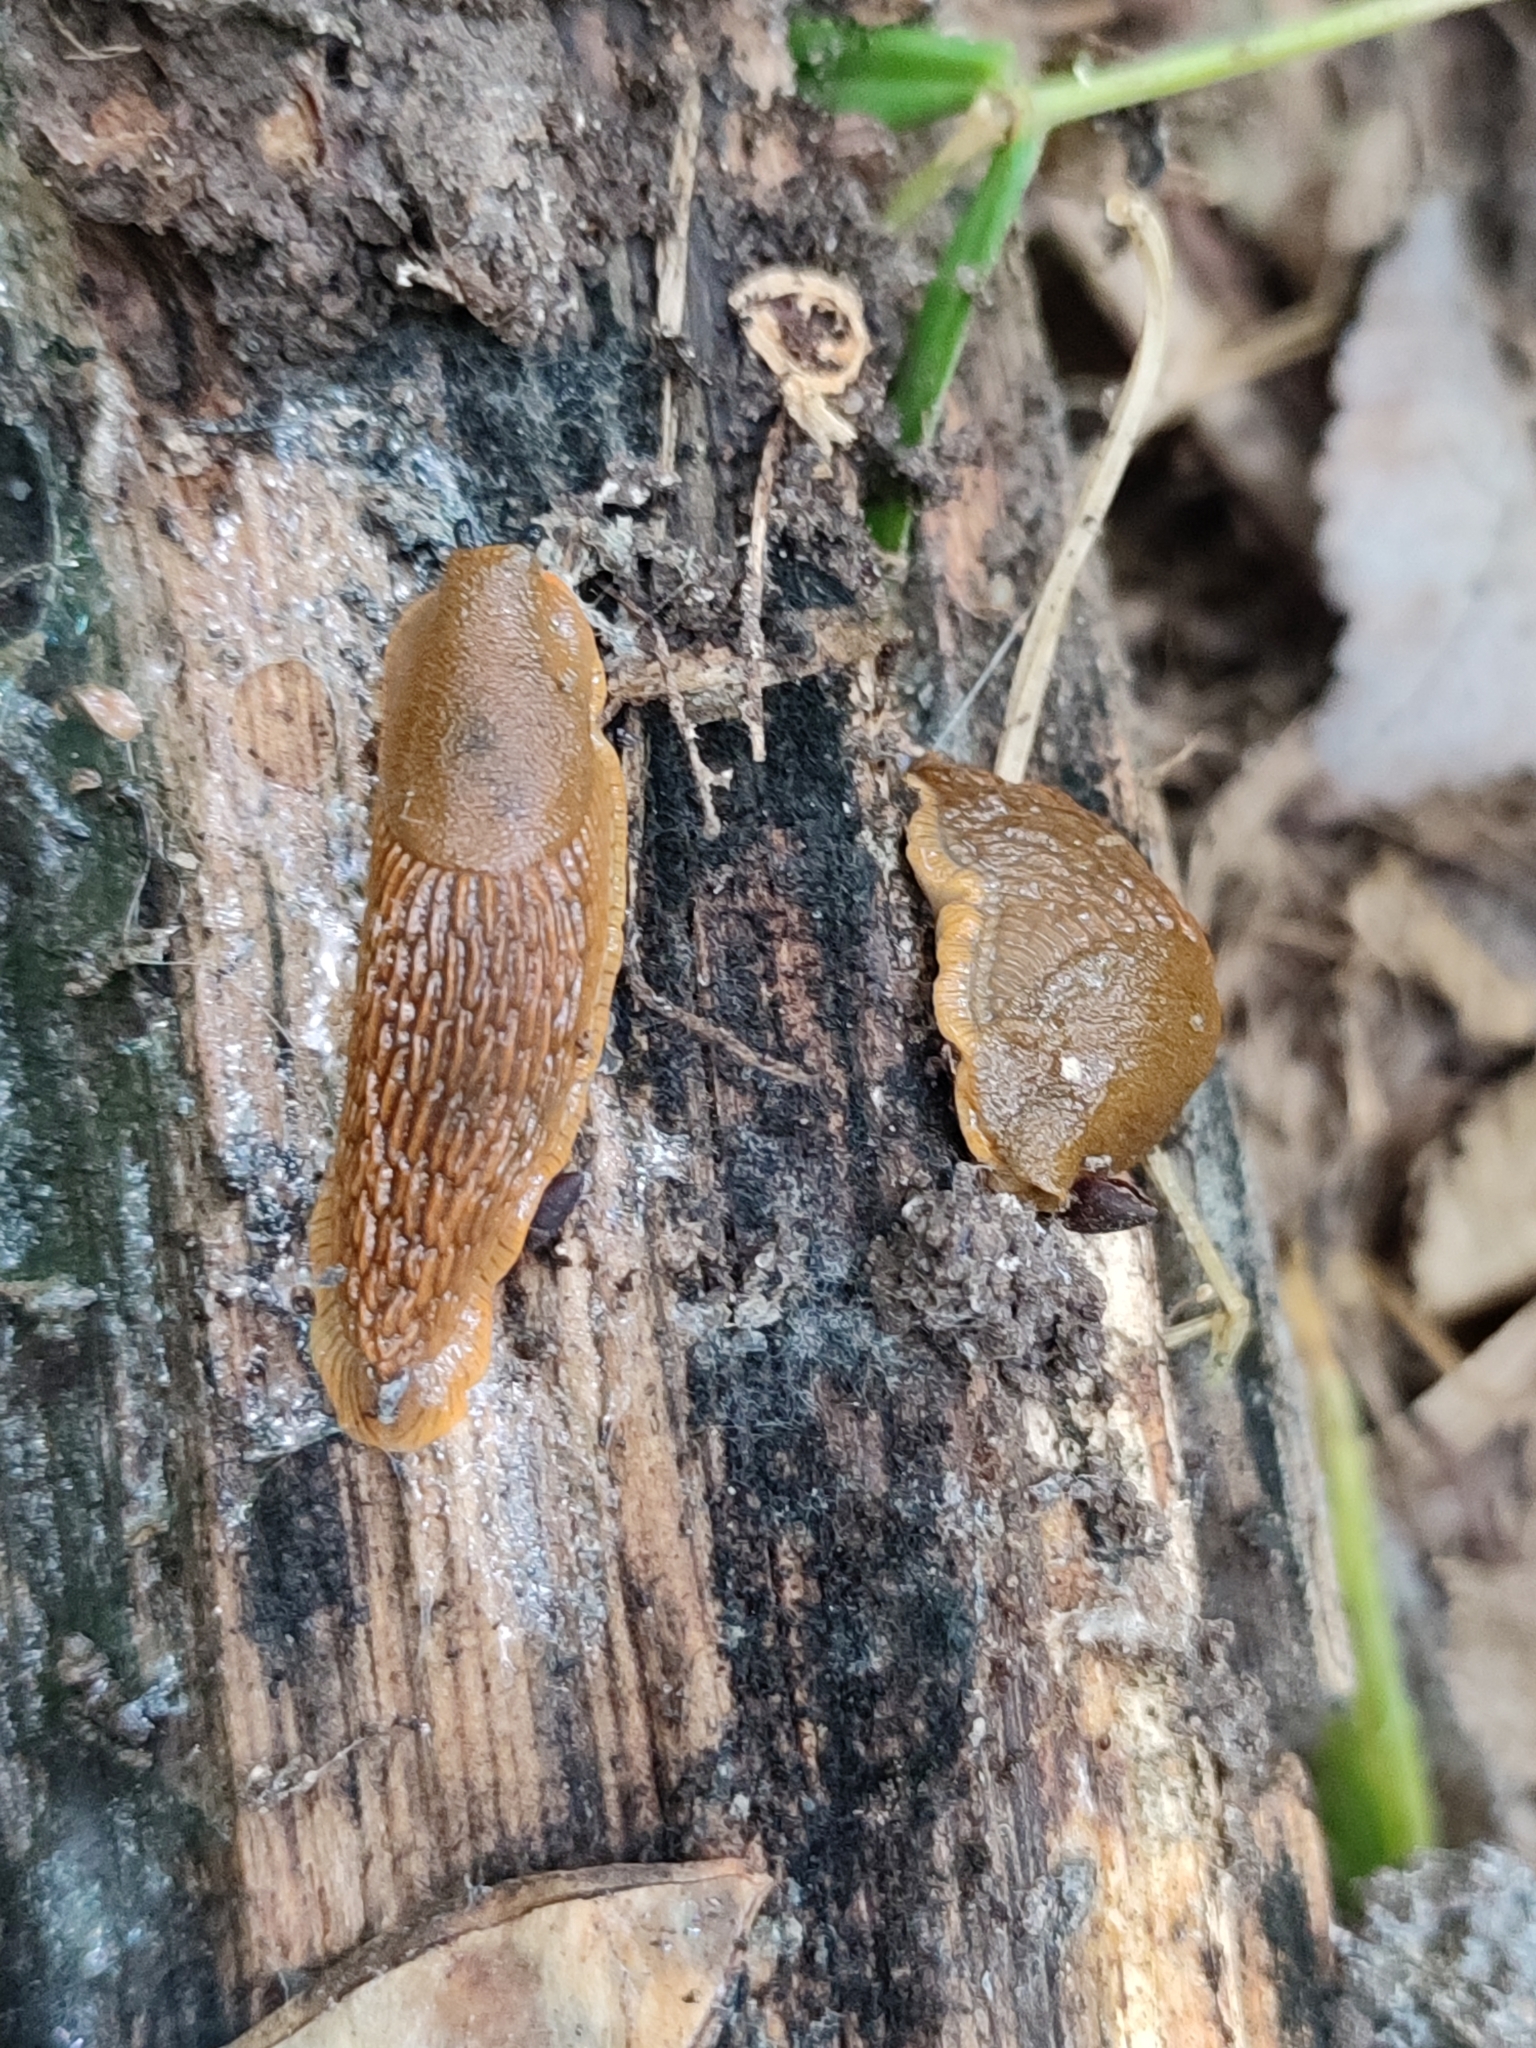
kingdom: Animalia
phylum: Mollusca
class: Gastropoda
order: Stylommatophora
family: Arionidae
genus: Arion
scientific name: Arion vulgaris
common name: Lusitanian slug
